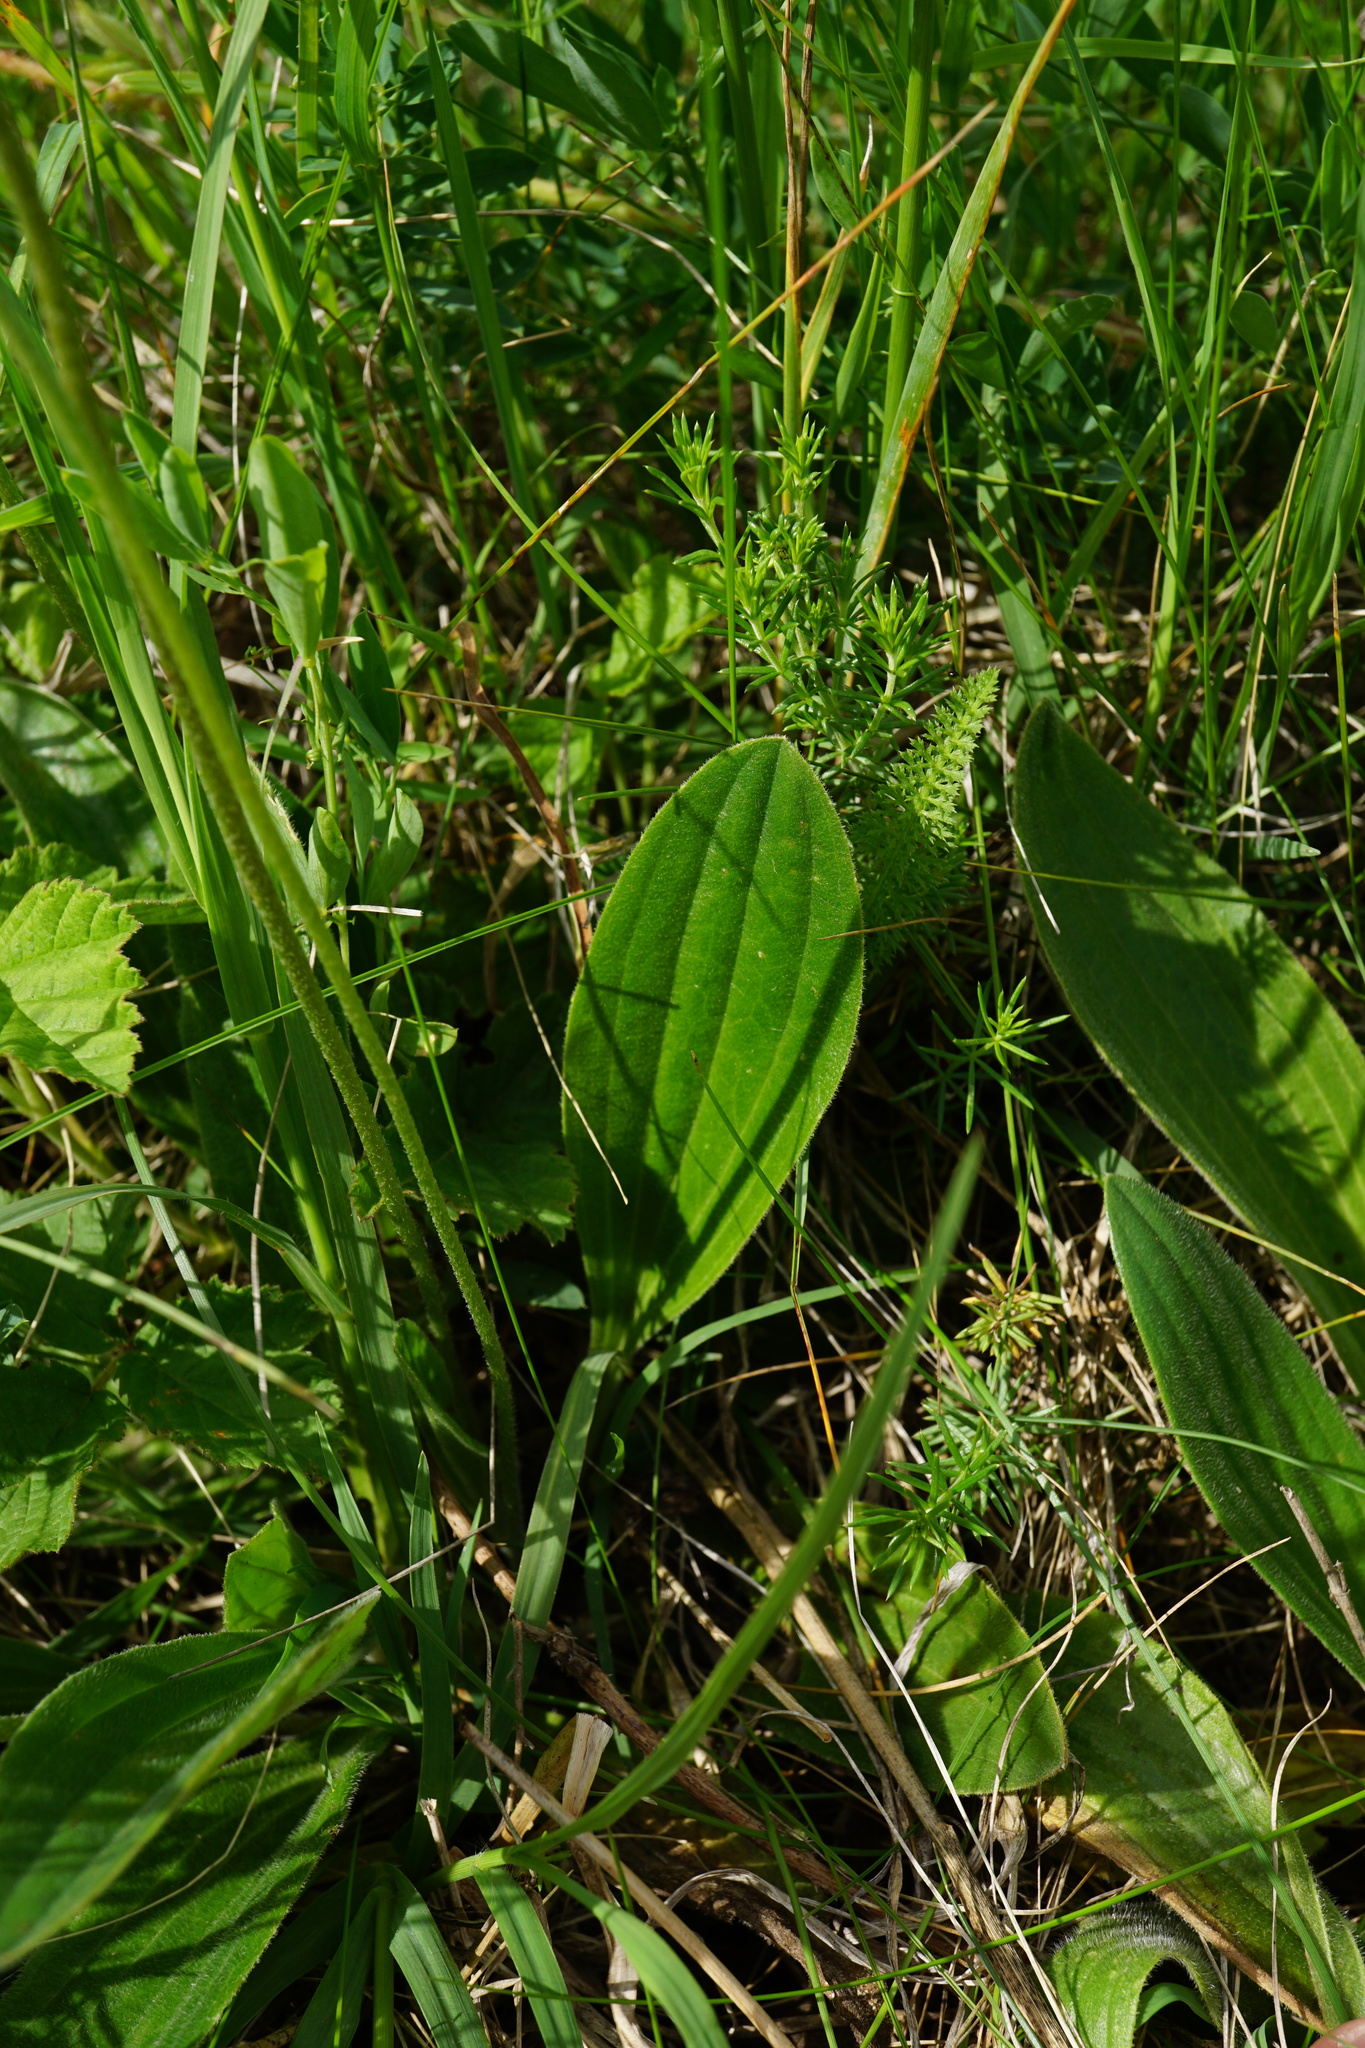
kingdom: Plantae
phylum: Tracheophyta
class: Magnoliopsida
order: Lamiales
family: Plantaginaceae
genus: Plantago
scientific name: Plantago media
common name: Hoary plantain
